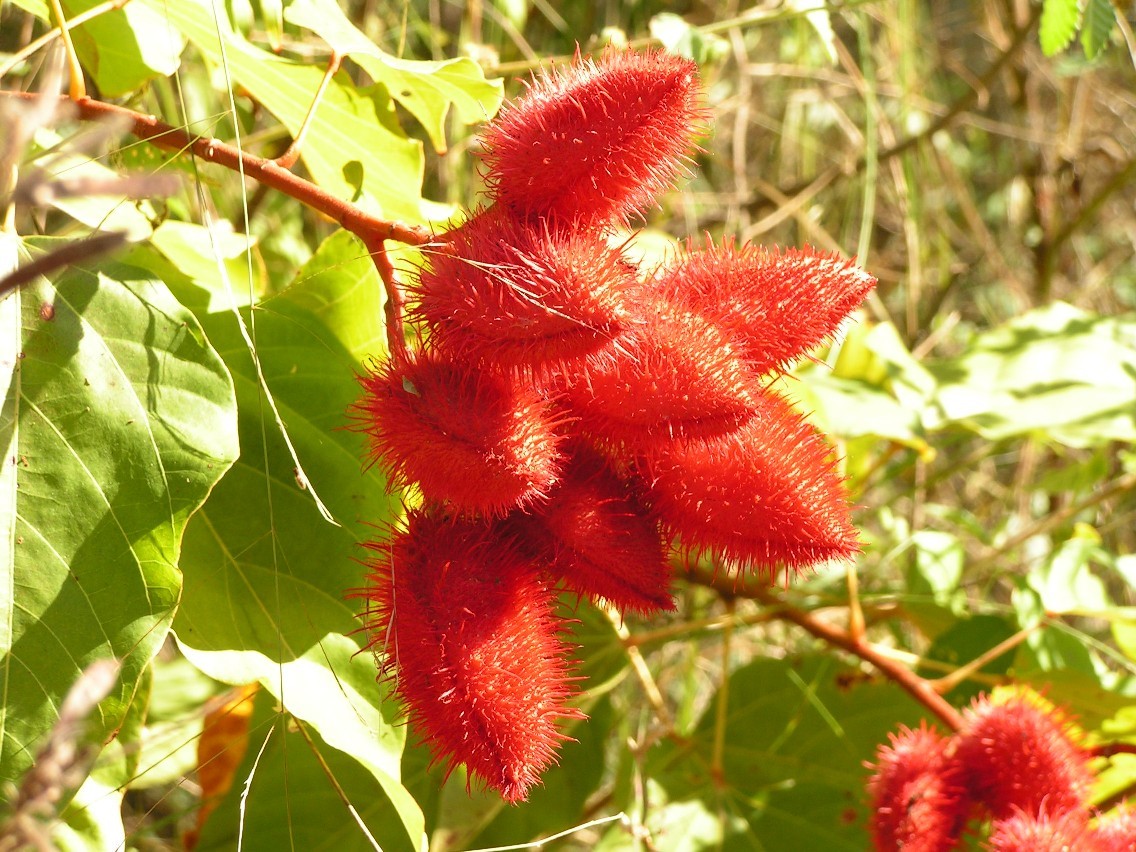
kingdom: Plantae
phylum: Tracheophyta
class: Magnoliopsida
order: Malvales
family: Bixaceae
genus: Bixa
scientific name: Bixa orellana
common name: Lipsticktree
